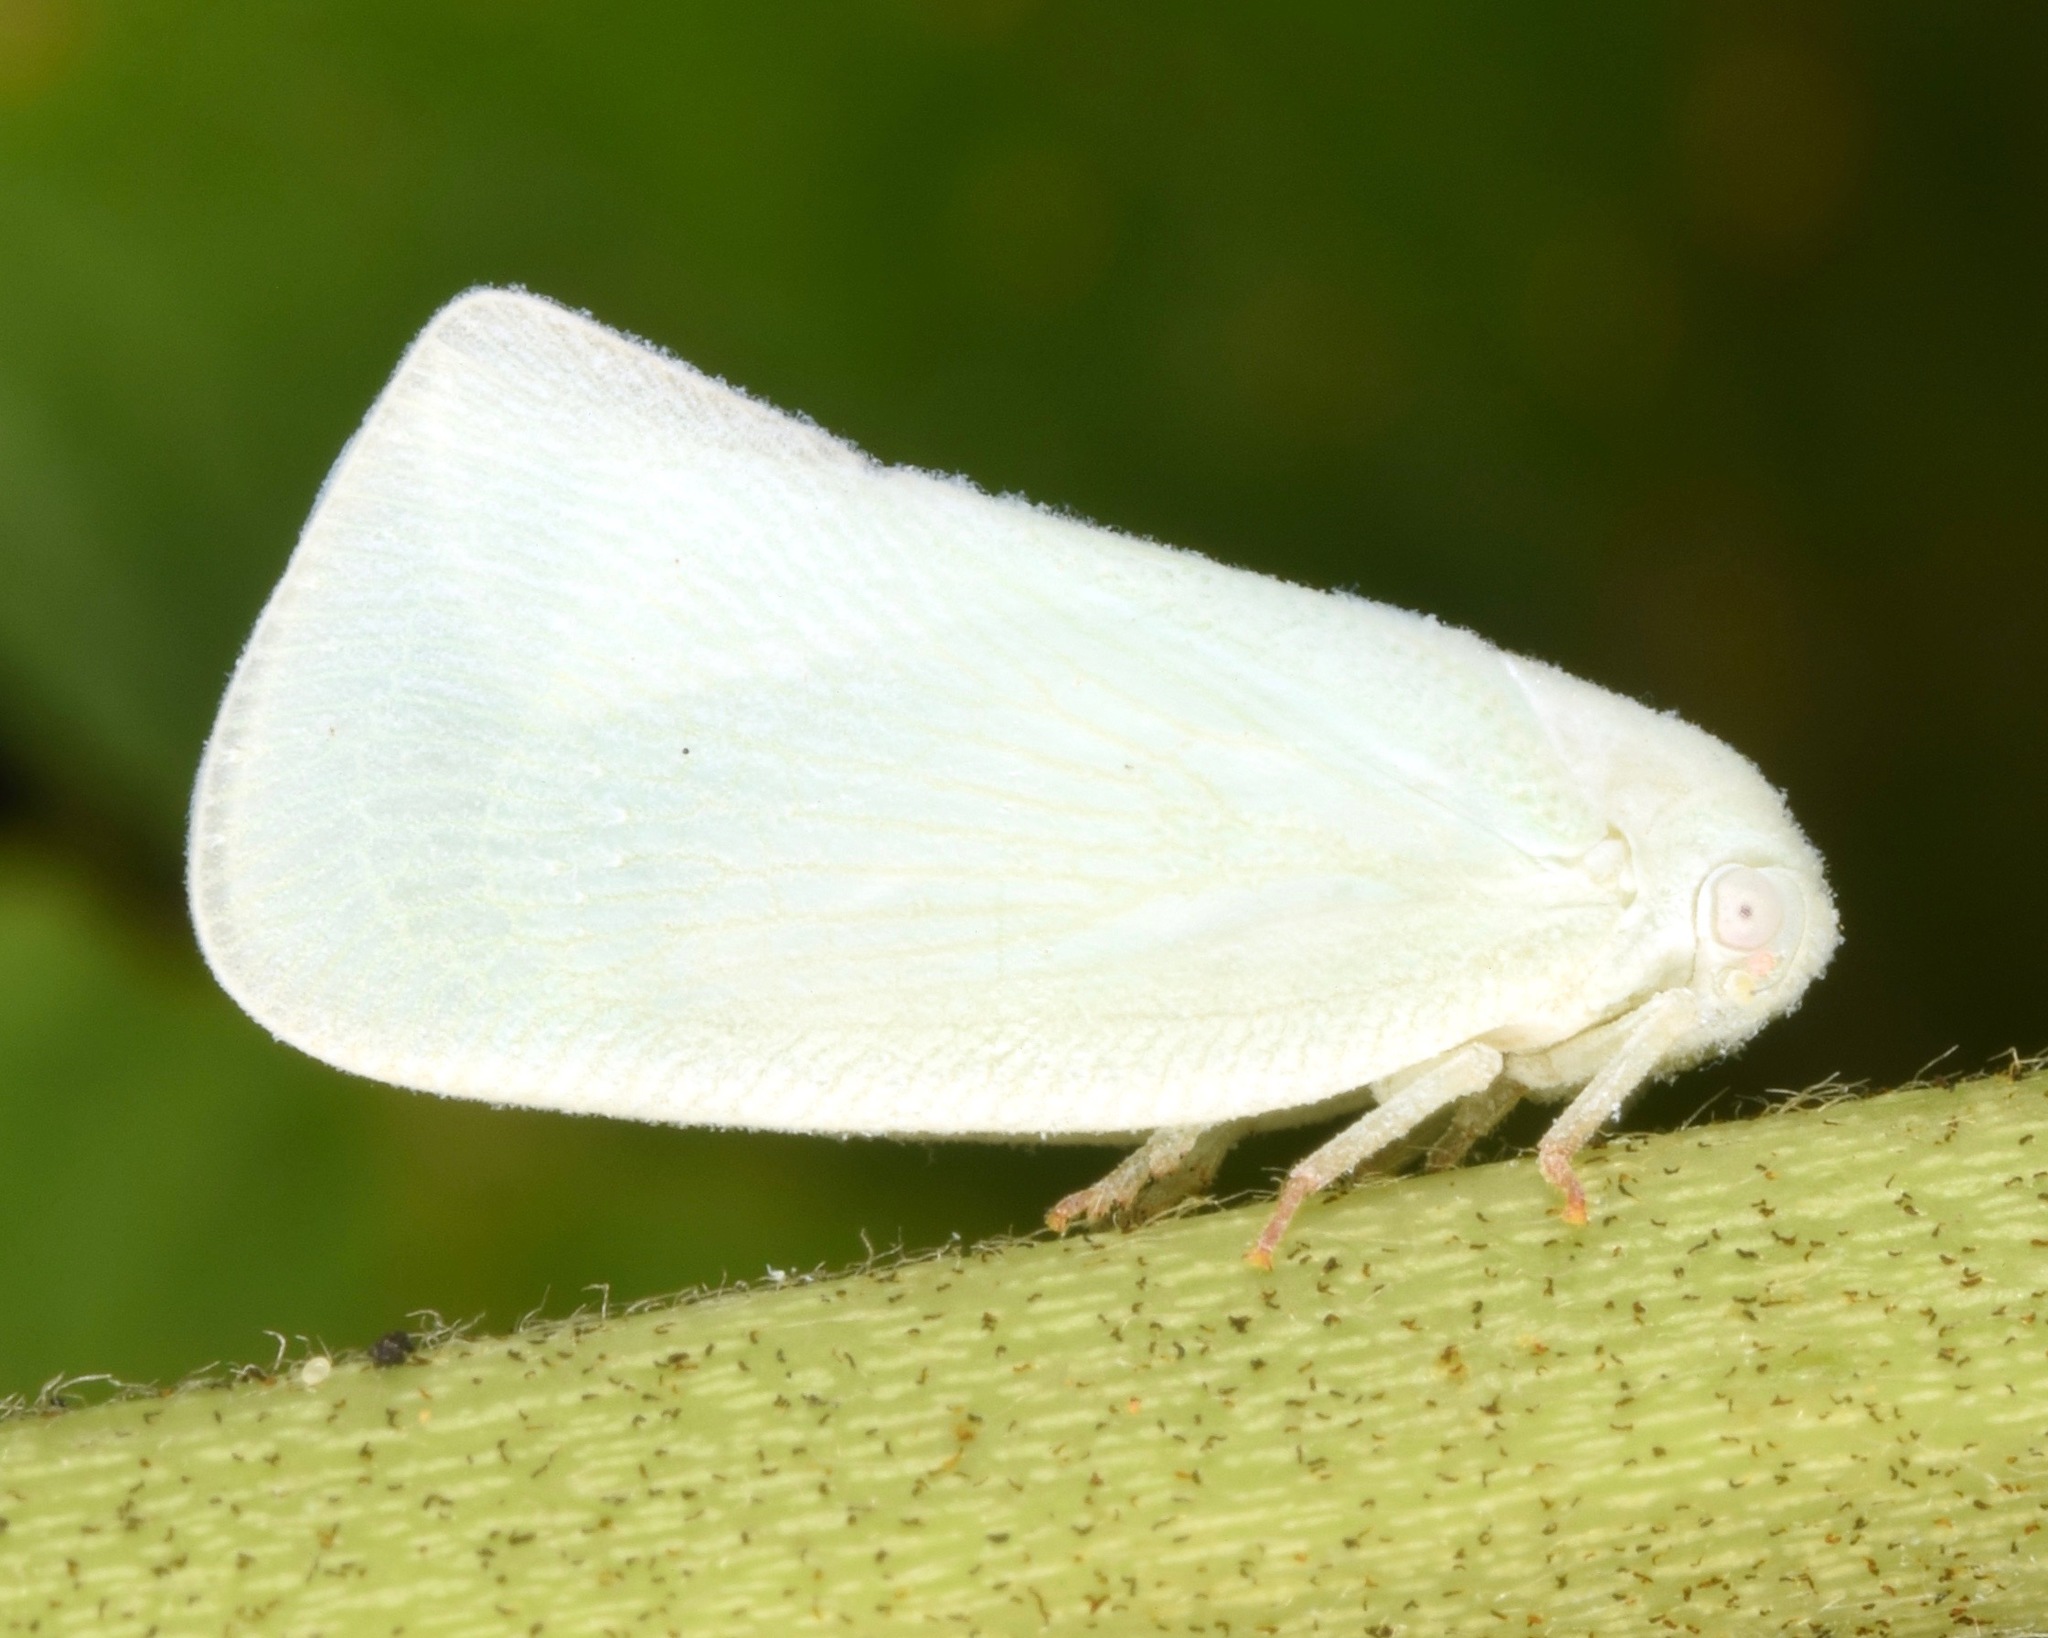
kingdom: Animalia
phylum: Arthropoda
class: Insecta
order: Hemiptera
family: Flatidae
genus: Flatormenis
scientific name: Flatormenis proxima
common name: Northern flatid planthopper
